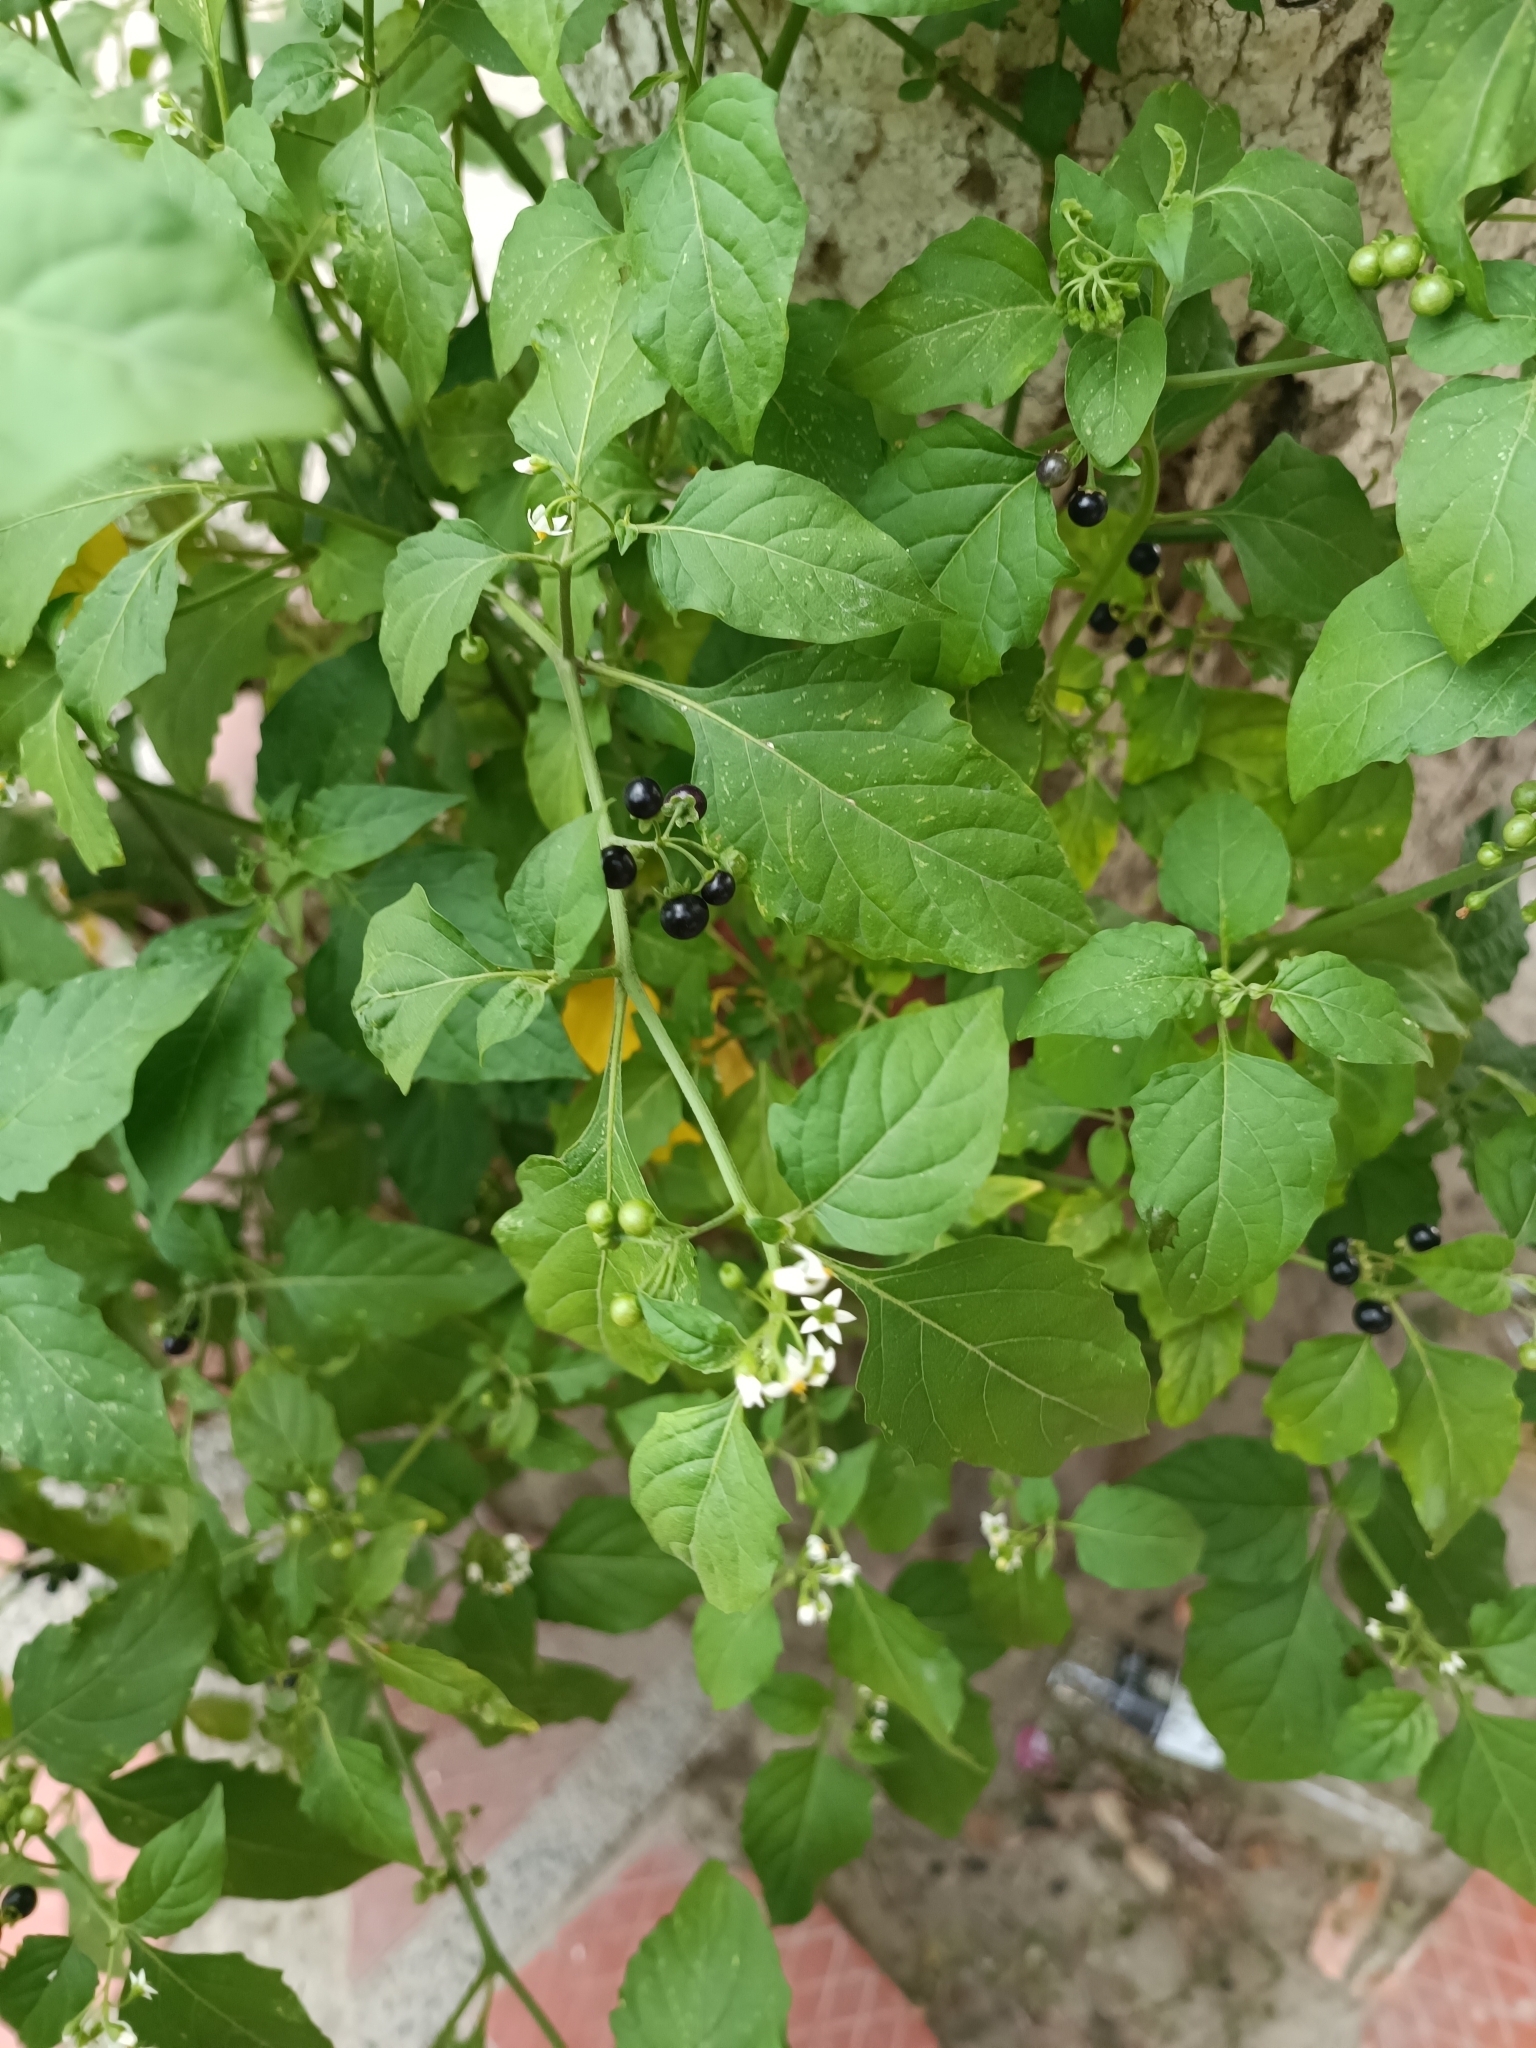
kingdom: Plantae
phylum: Tracheophyta
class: Magnoliopsida
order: Solanales
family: Solanaceae
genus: Solanum
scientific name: Solanum americanum
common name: American black nightshade
